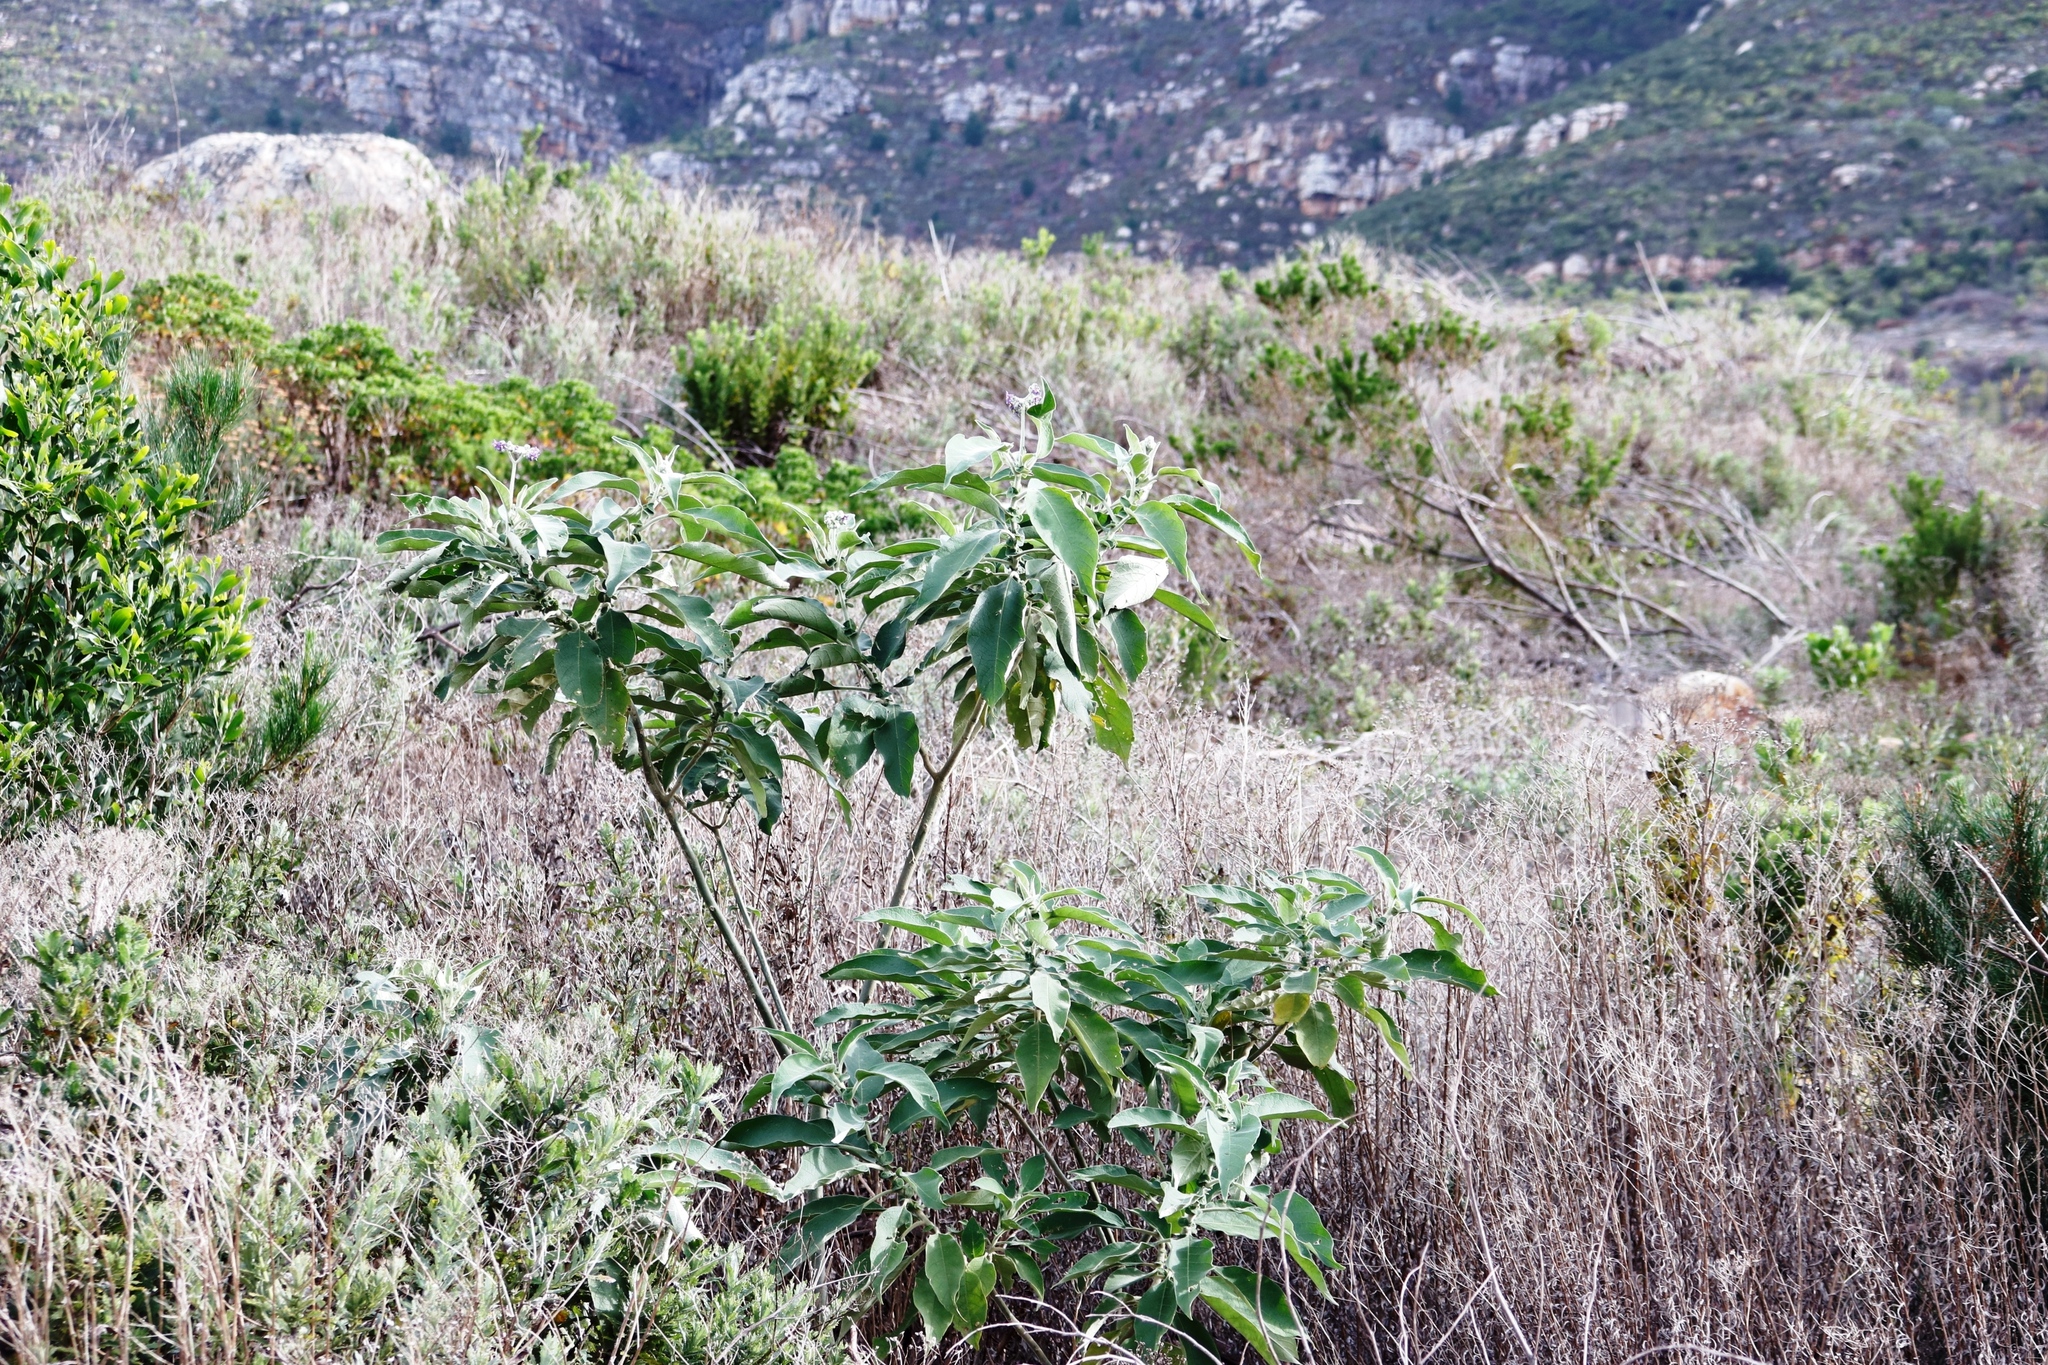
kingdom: Plantae
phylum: Tracheophyta
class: Magnoliopsida
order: Solanales
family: Solanaceae
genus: Solanum
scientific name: Solanum mauritianum
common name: Earleaf nightshade
